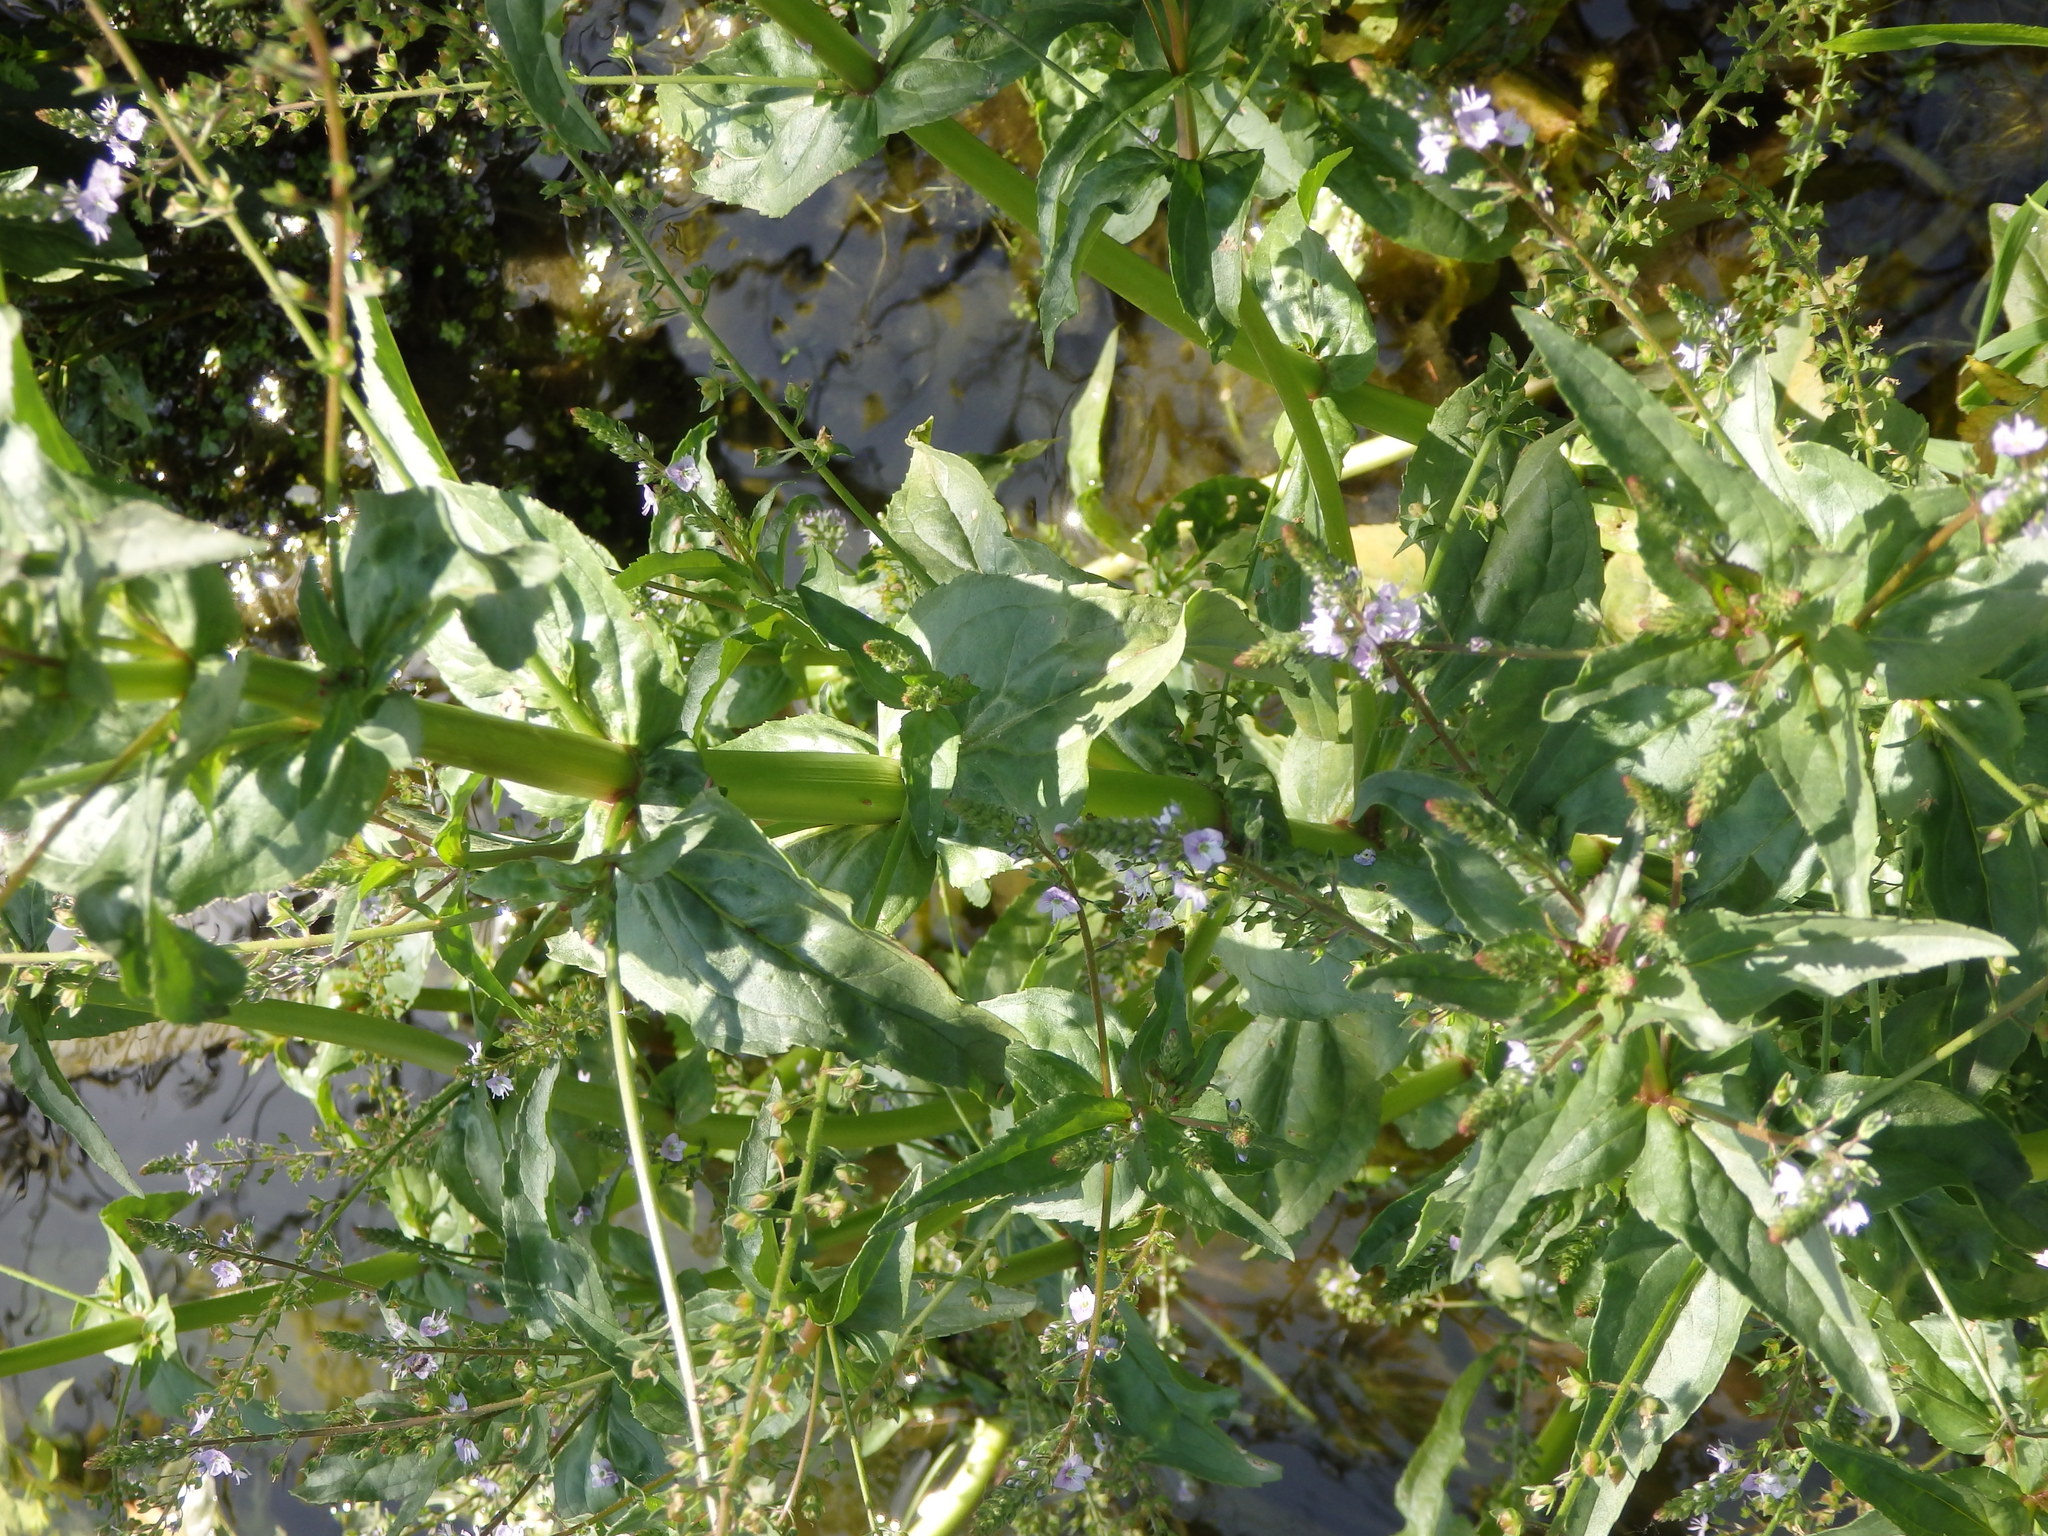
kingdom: Plantae
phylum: Tracheophyta
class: Magnoliopsida
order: Lamiales
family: Plantaginaceae
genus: Veronica
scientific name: Veronica anagallis-aquatica
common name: Water speedwell
